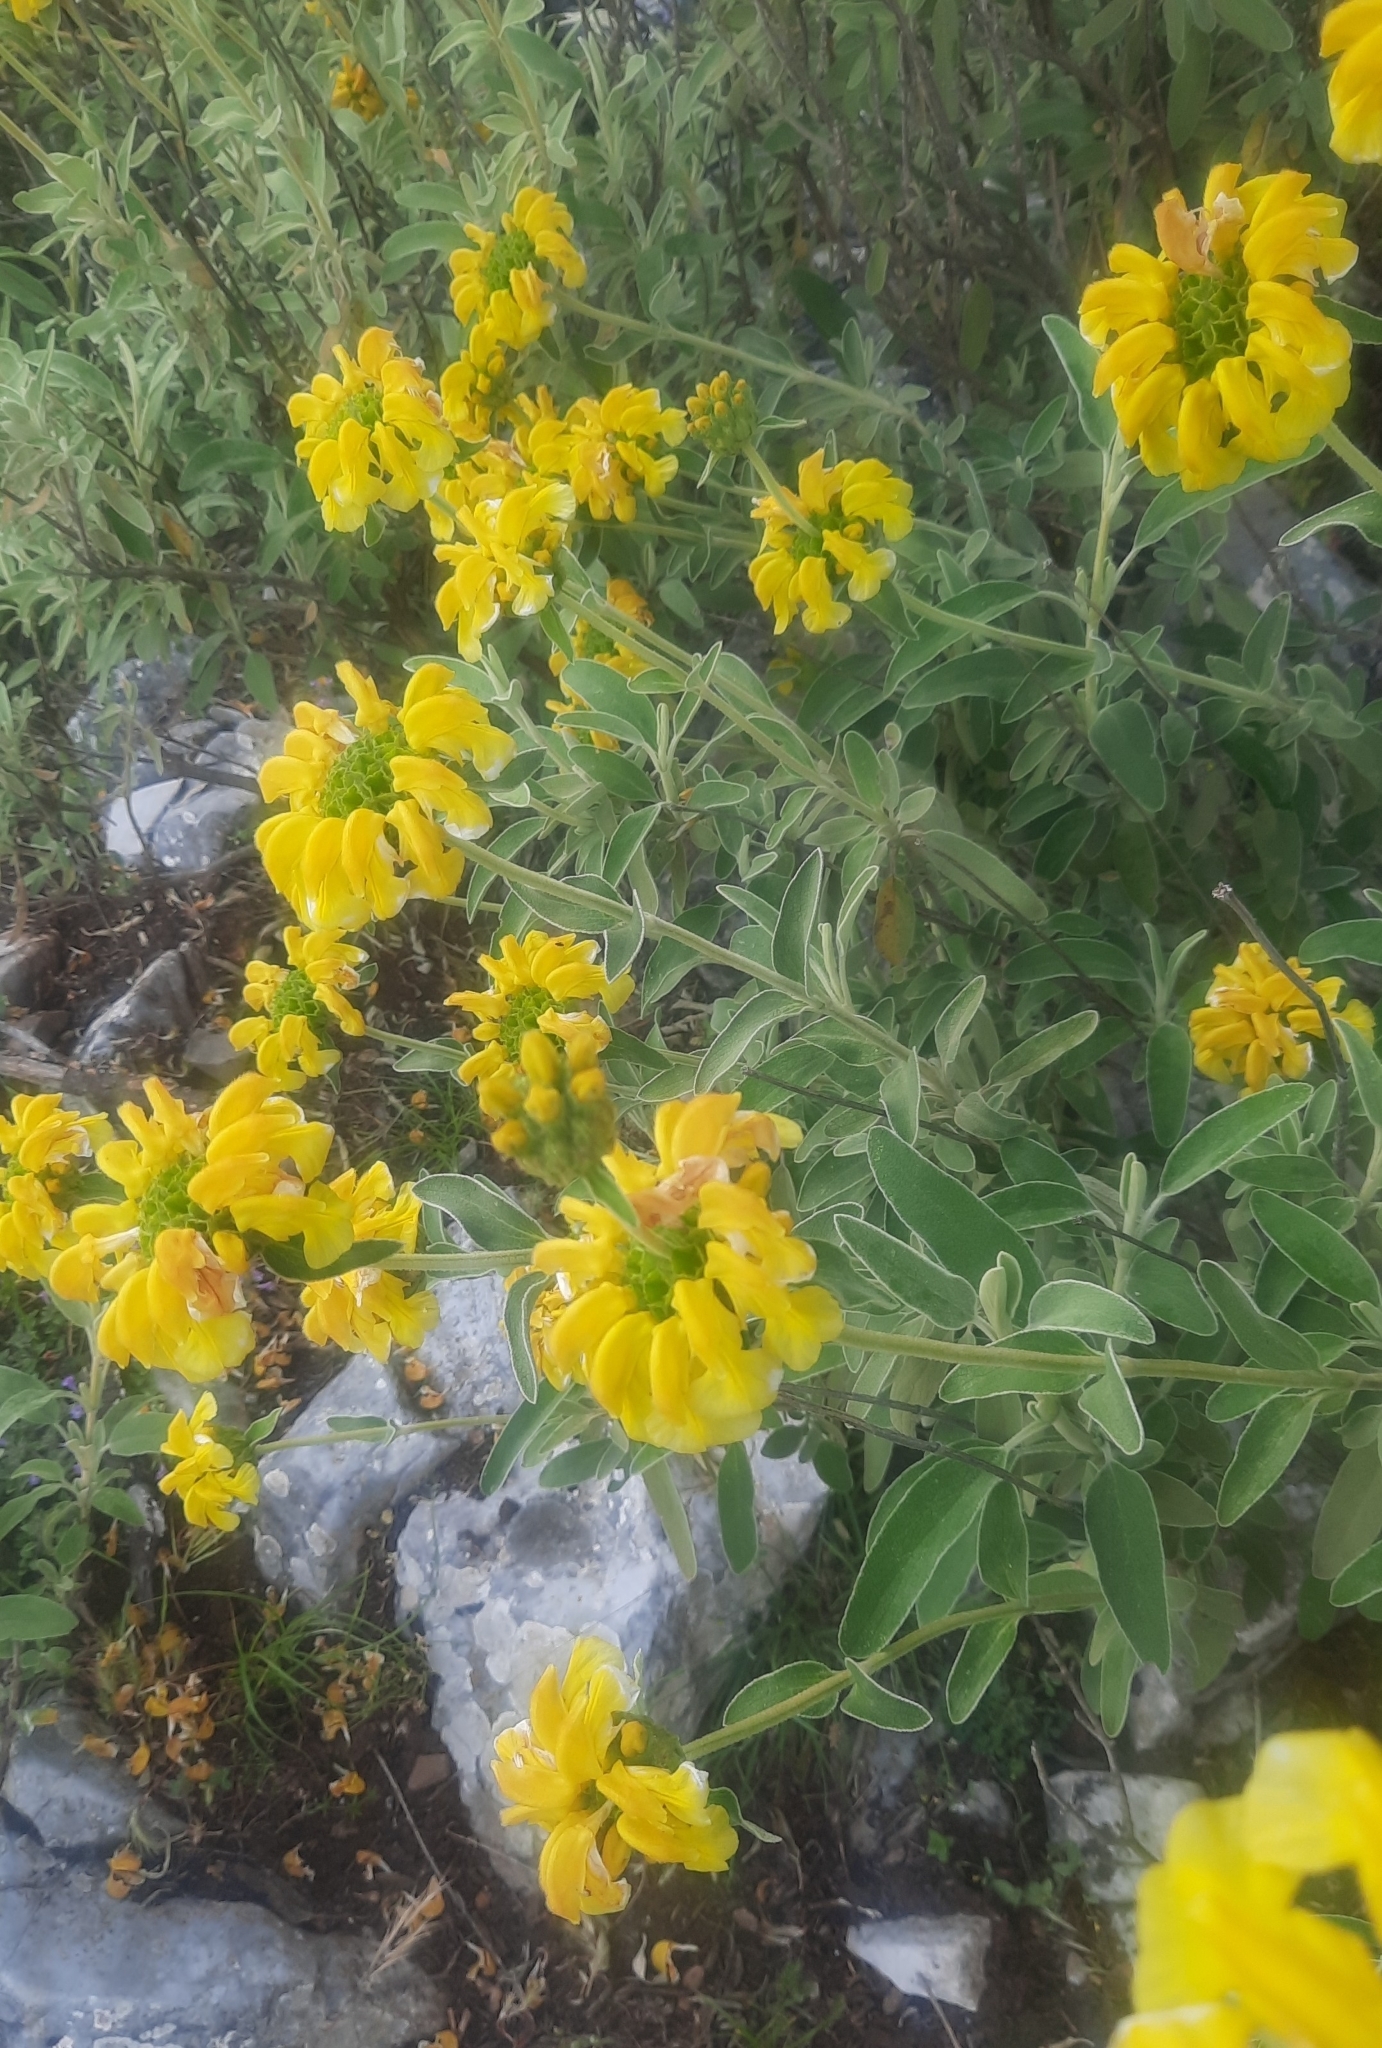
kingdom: Plantae
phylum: Tracheophyta
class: Magnoliopsida
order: Lamiales
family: Lamiaceae
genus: Phlomis
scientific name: Phlomis fruticosa
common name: Jerusalem sage
